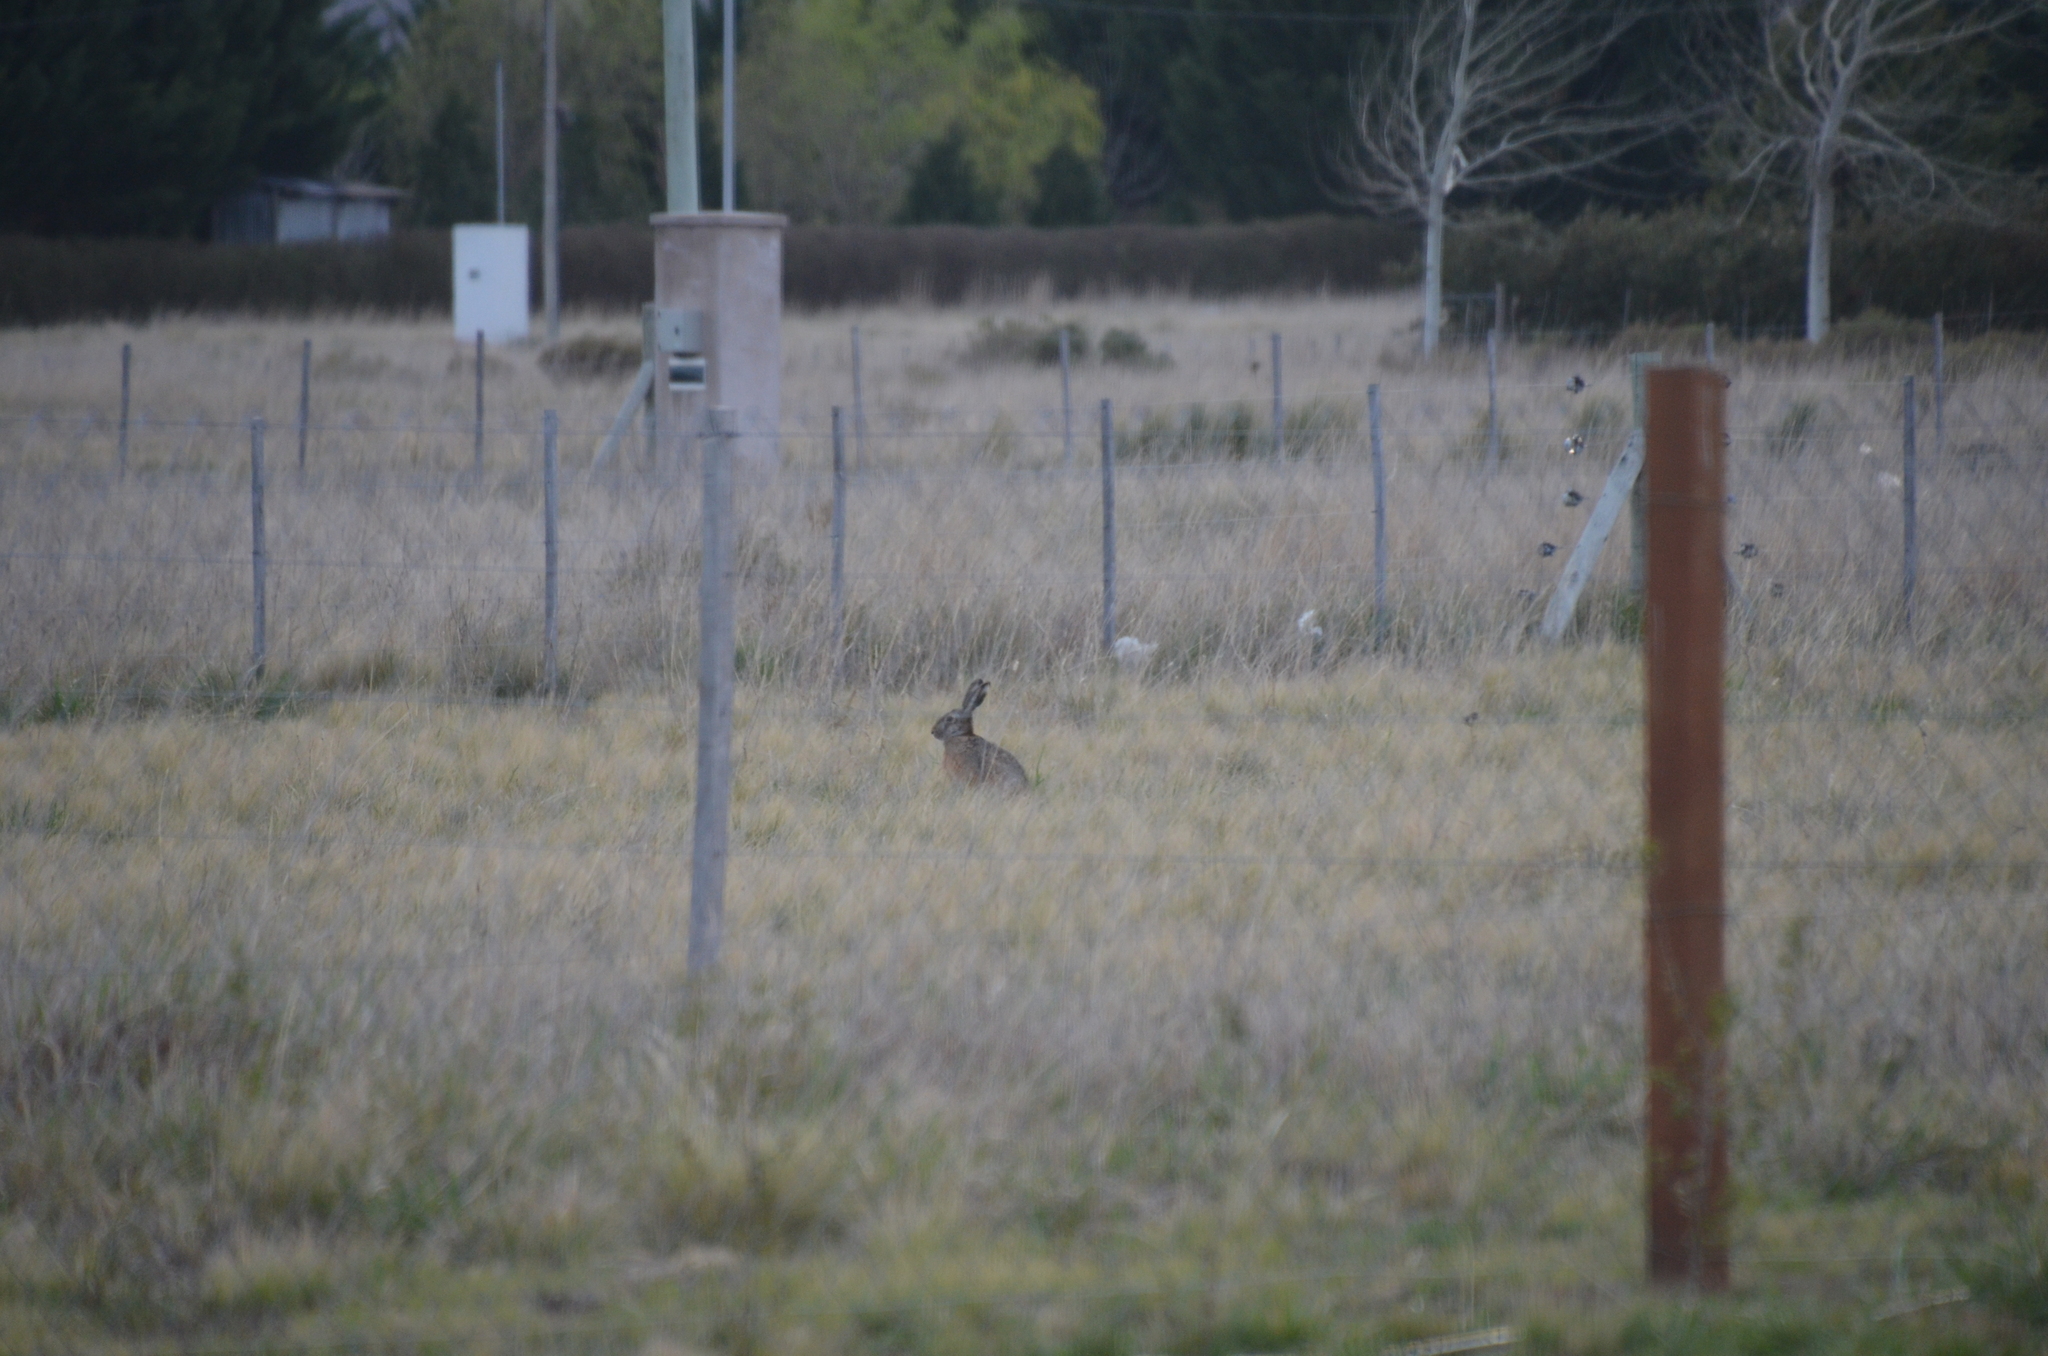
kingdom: Animalia
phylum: Chordata
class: Mammalia
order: Lagomorpha
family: Leporidae
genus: Lepus
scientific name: Lepus europaeus
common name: European hare
